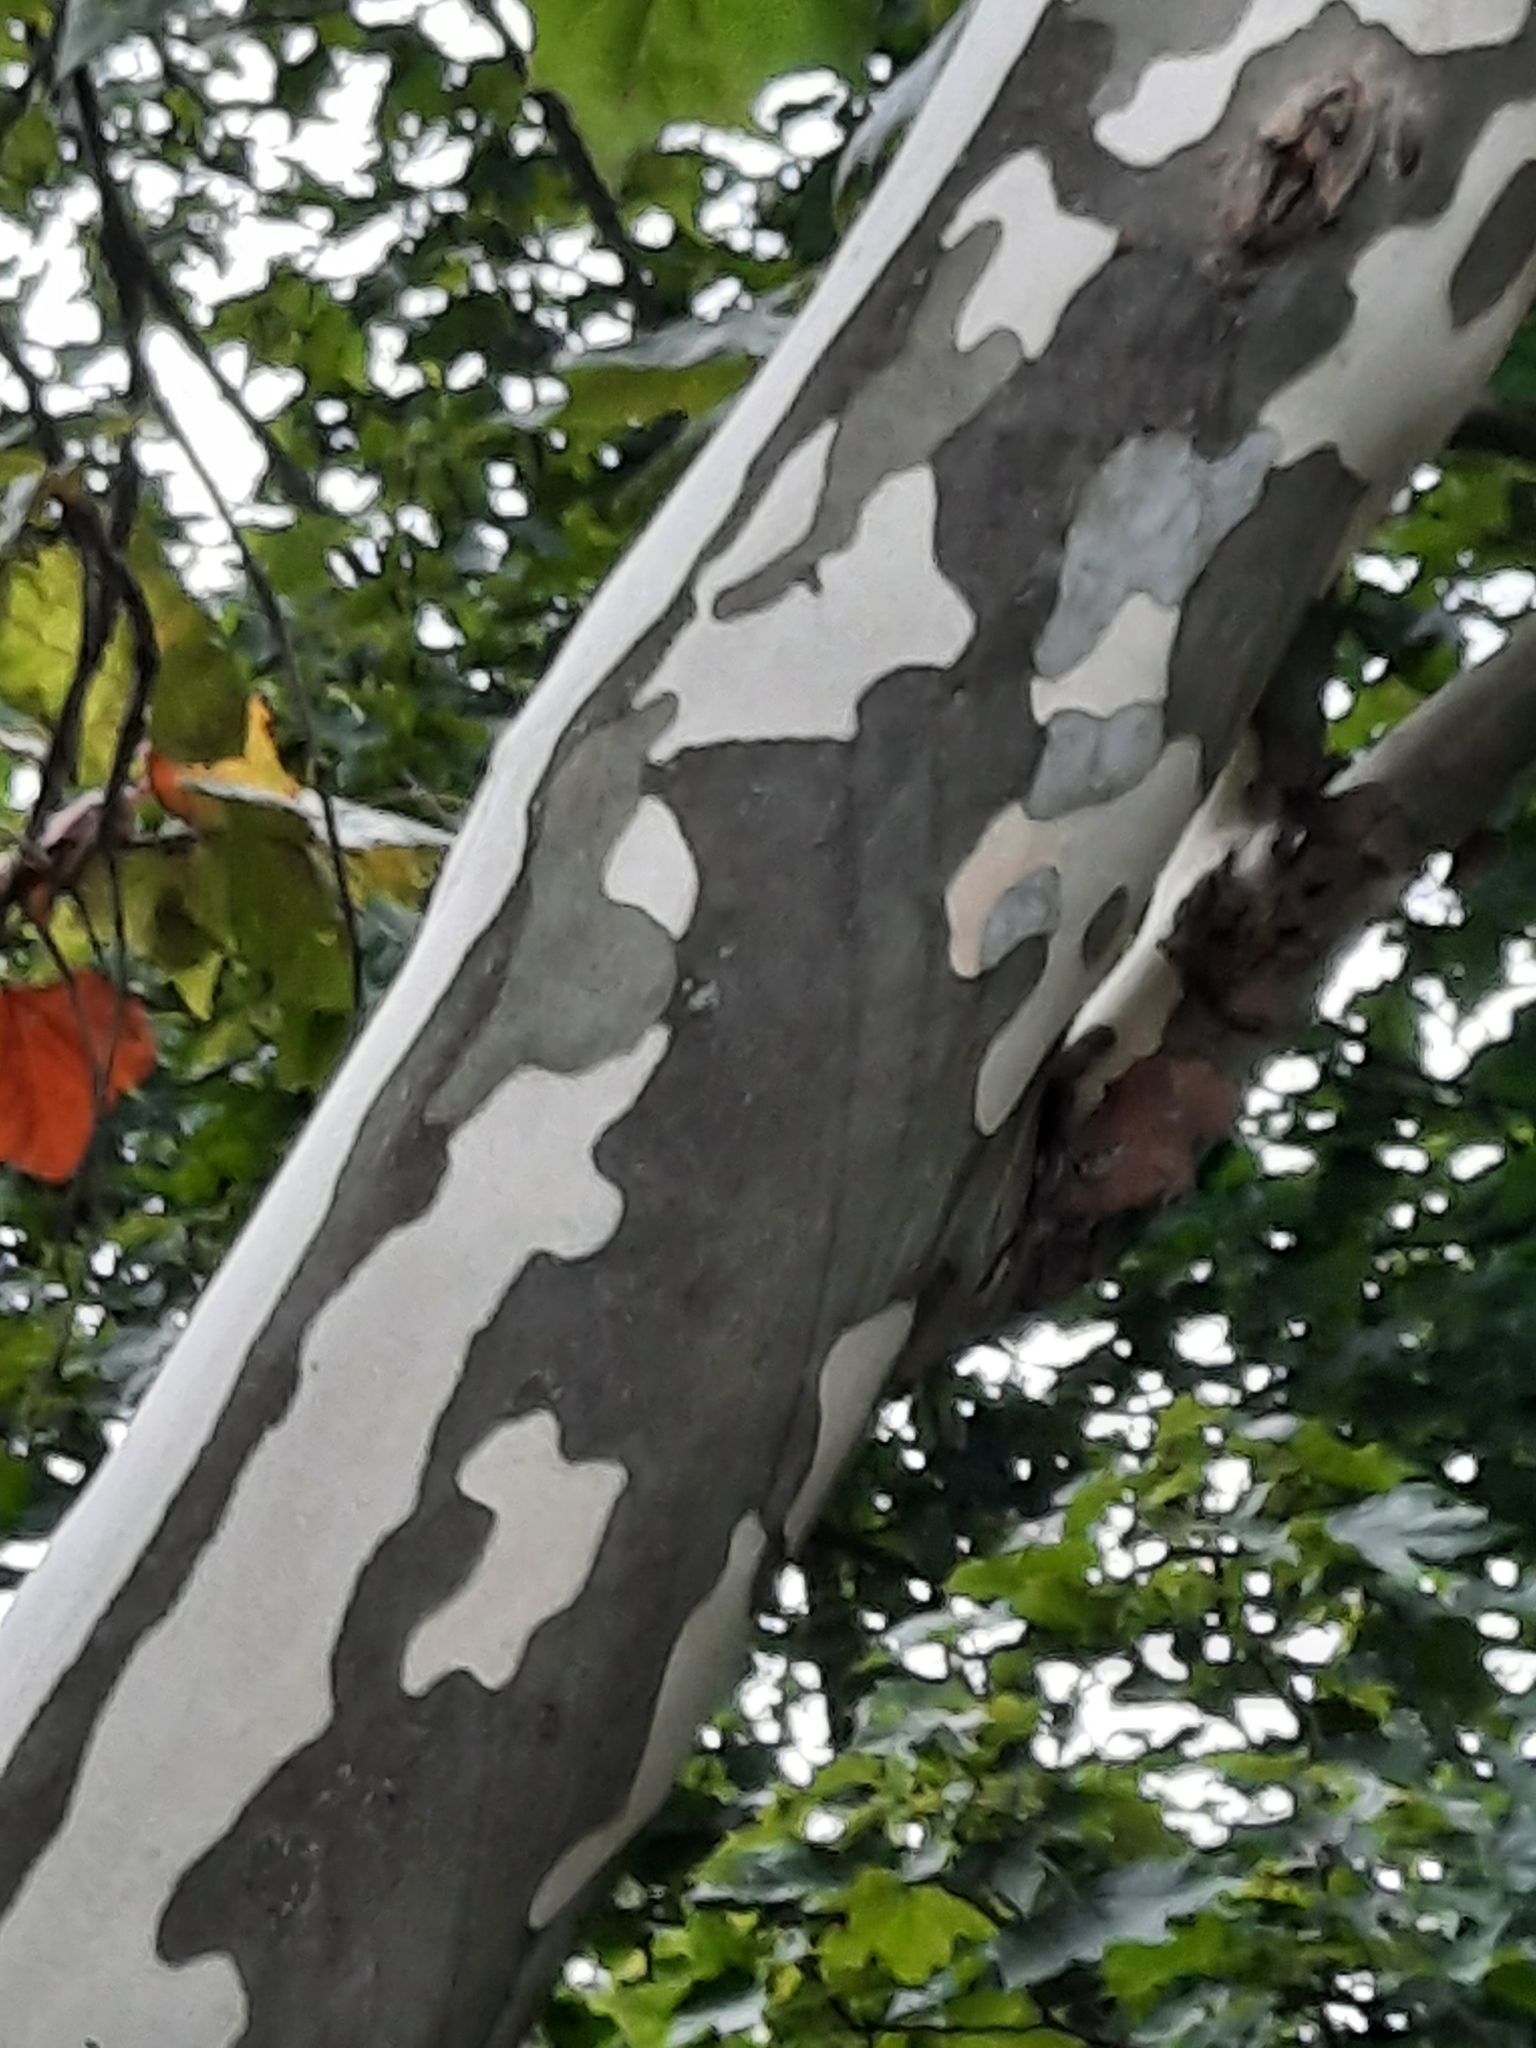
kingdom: Plantae
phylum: Tracheophyta
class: Magnoliopsida
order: Proteales
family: Platanaceae
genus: Platanus
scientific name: Platanus occidentalis
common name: American sycamore
